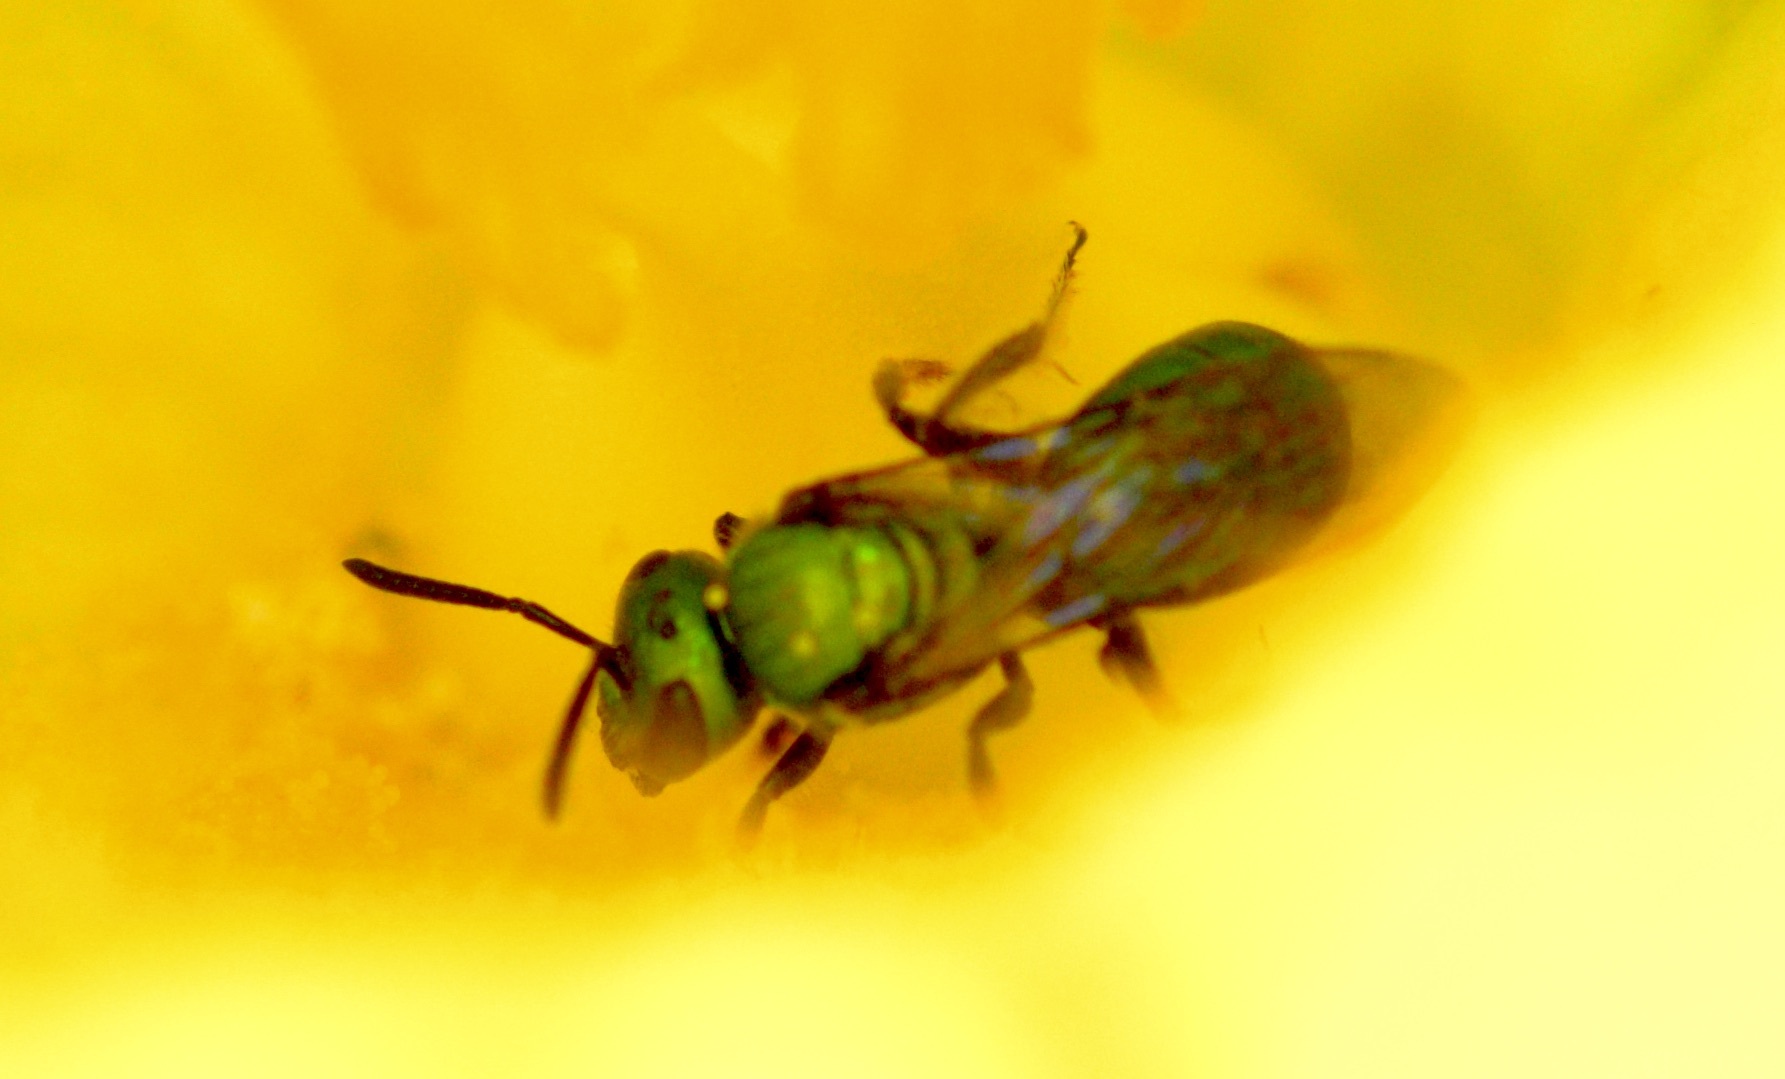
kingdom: Animalia
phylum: Arthropoda
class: Insecta
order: Hymenoptera
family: Halictidae
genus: Augochlora
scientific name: Augochlora pura
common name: Pure green sweat bee
